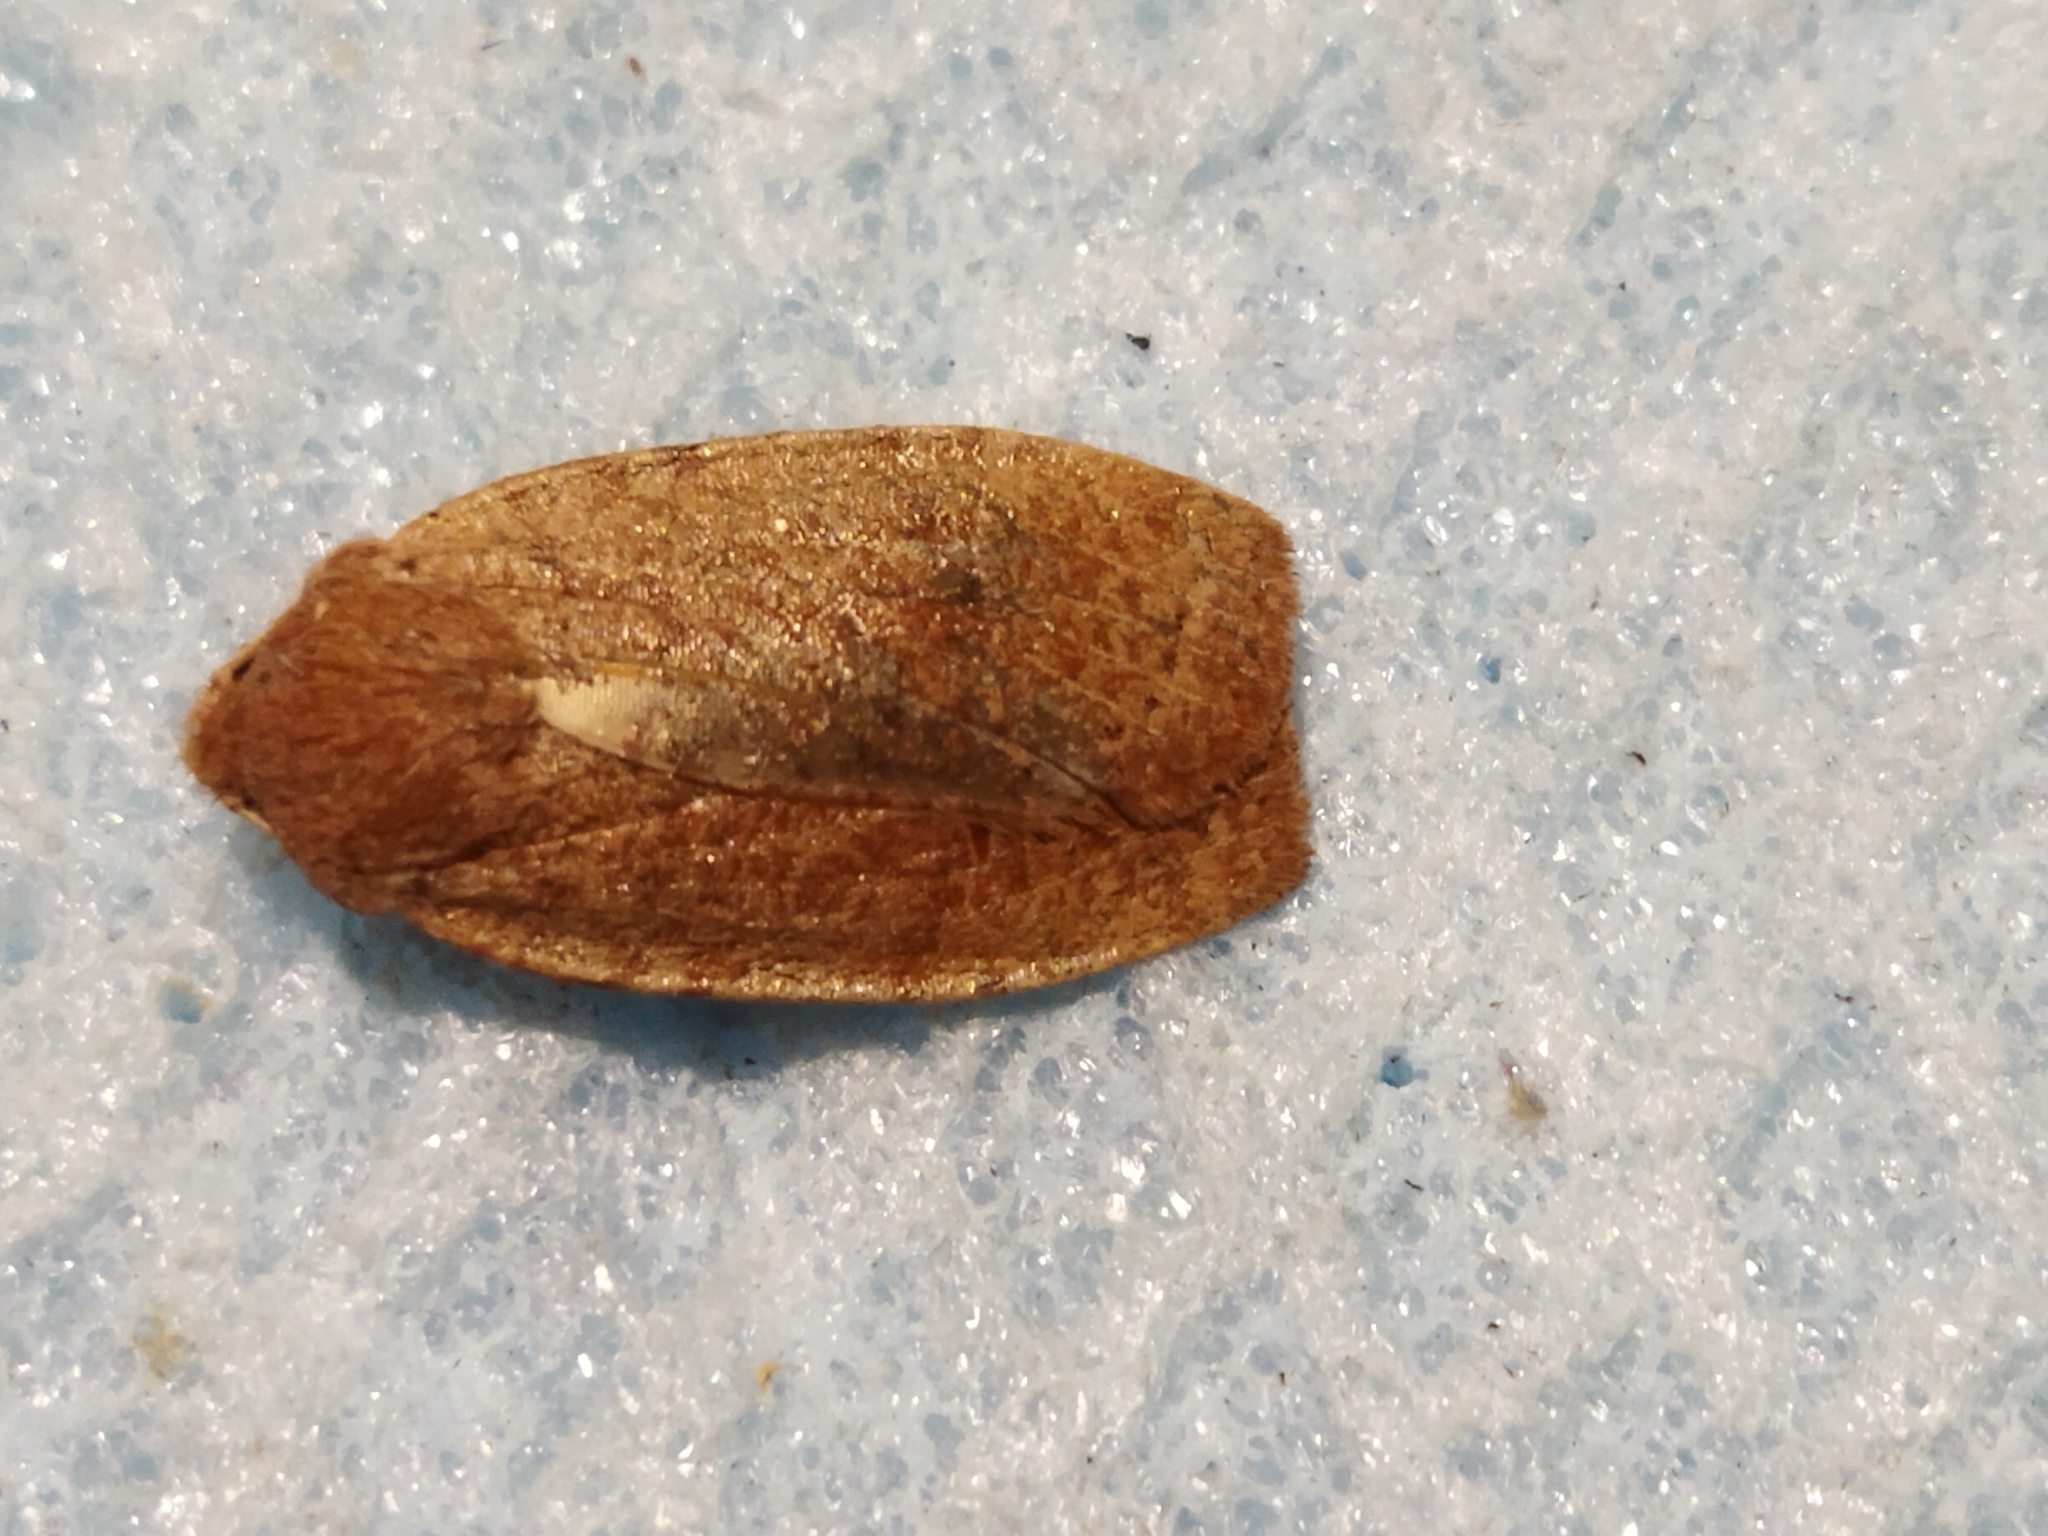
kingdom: Animalia
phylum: Arthropoda
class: Insecta
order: Lepidoptera
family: Noctuidae
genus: Conistra
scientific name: Conistra ragusae
